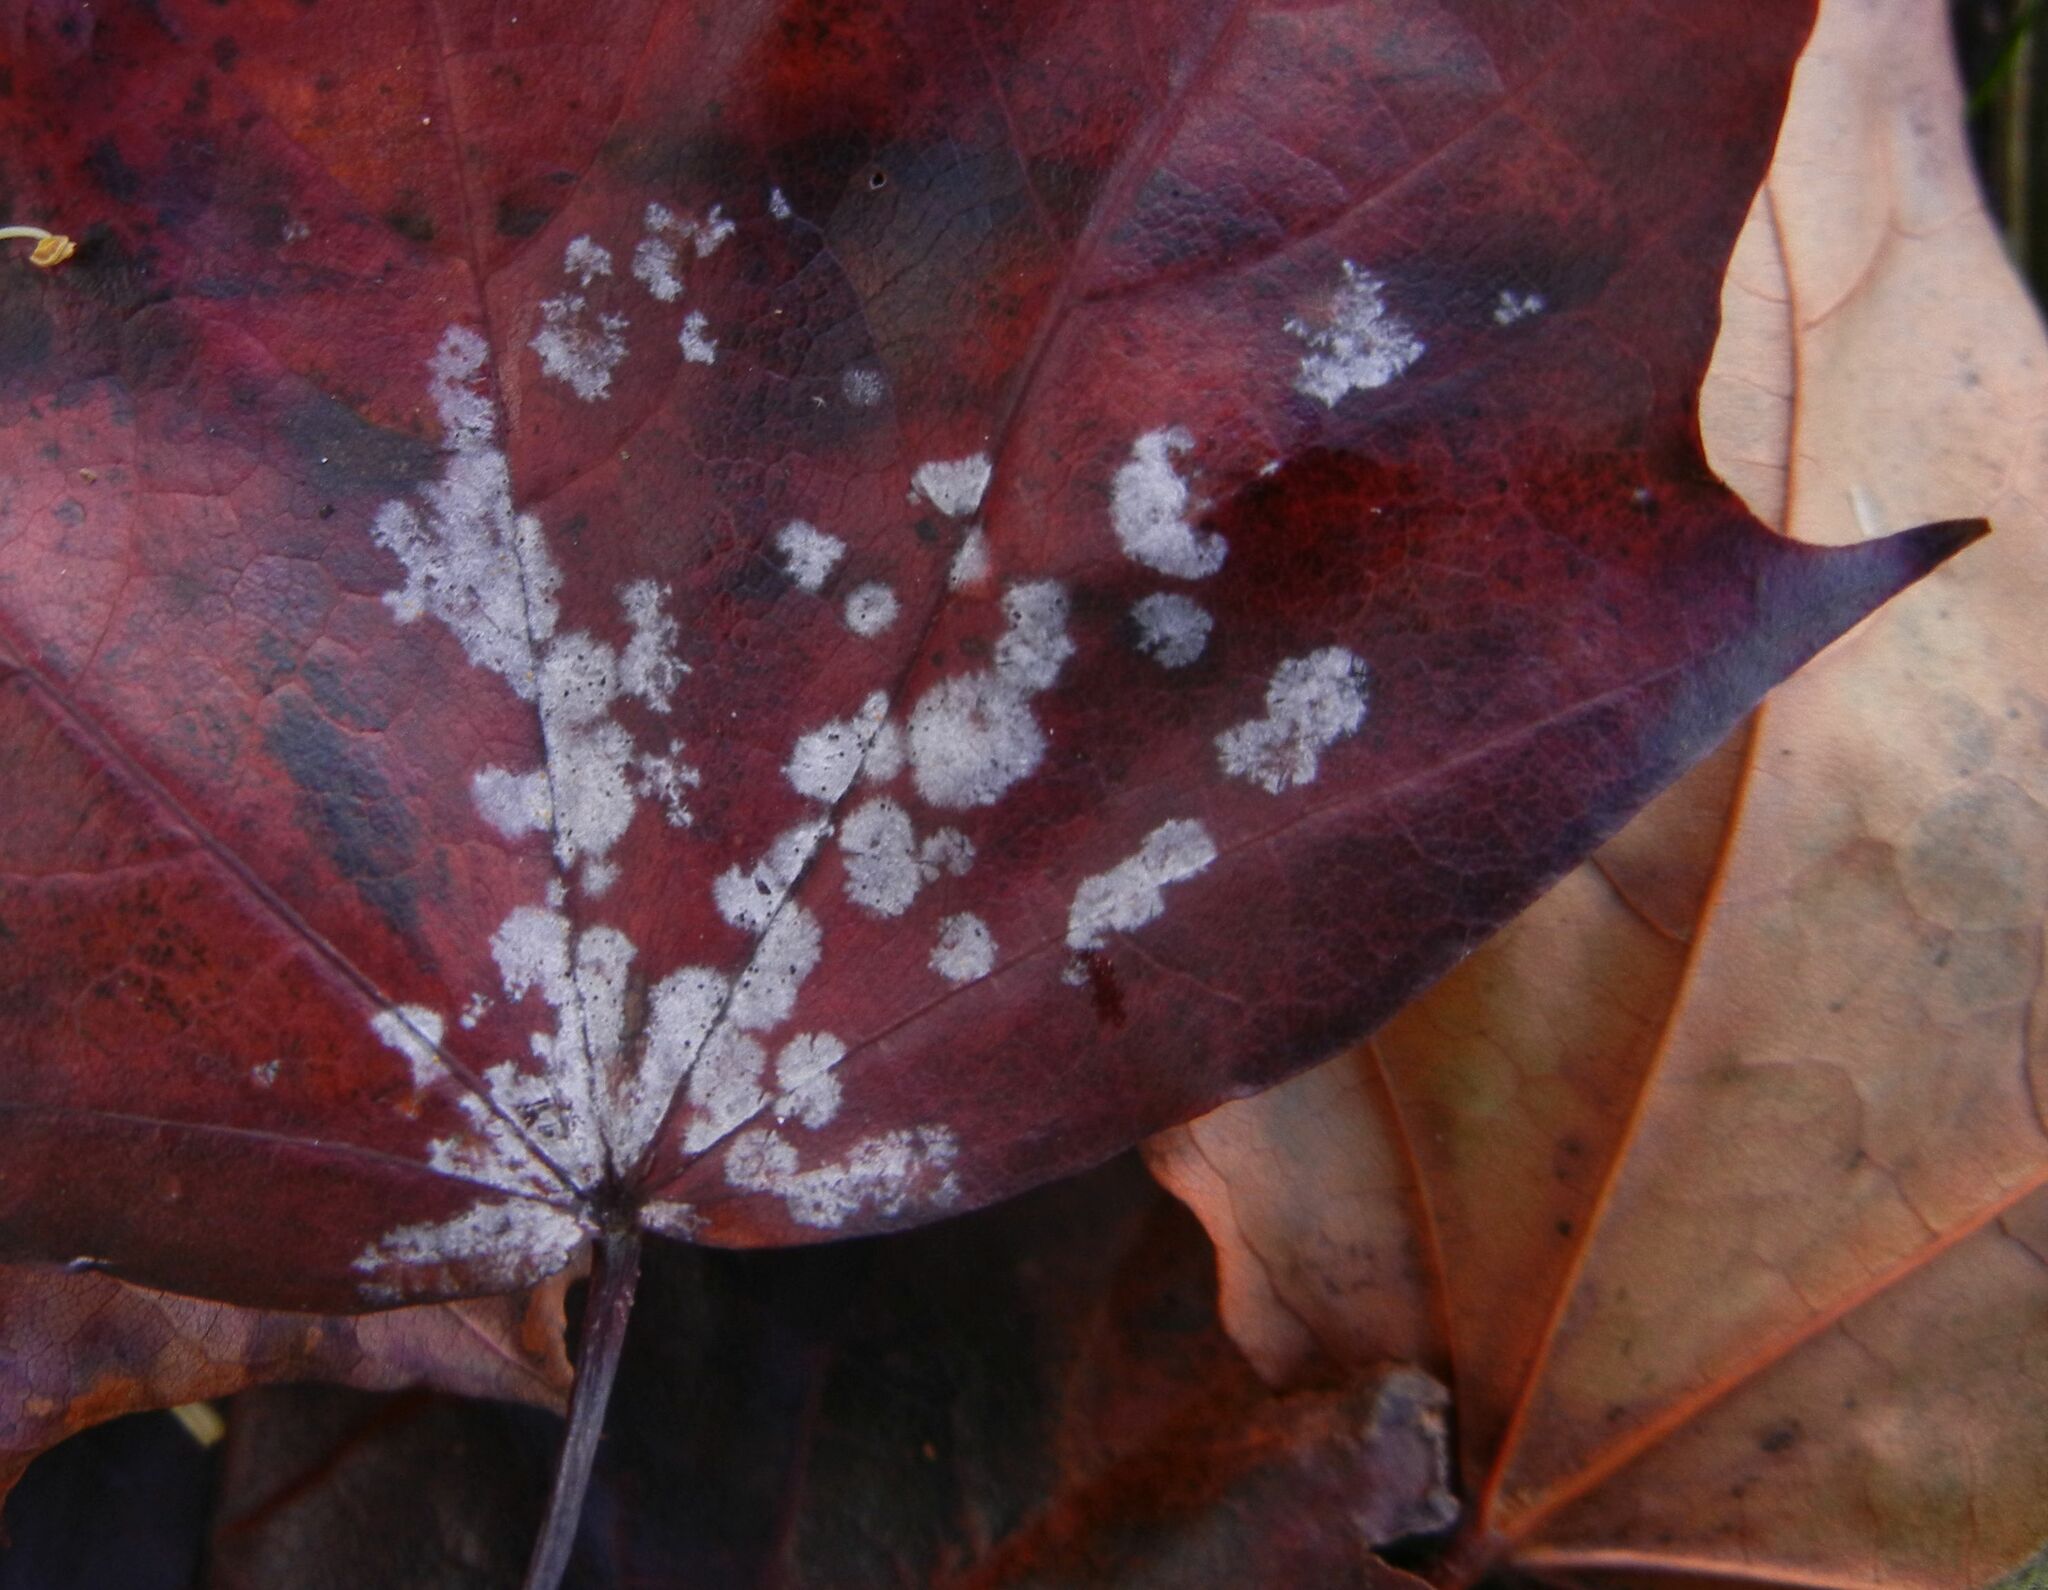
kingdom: Fungi
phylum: Ascomycota
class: Leotiomycetes
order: Helotiales
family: Erysiphaceae
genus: Sawadaea
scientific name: Sawadaea tulasnei
